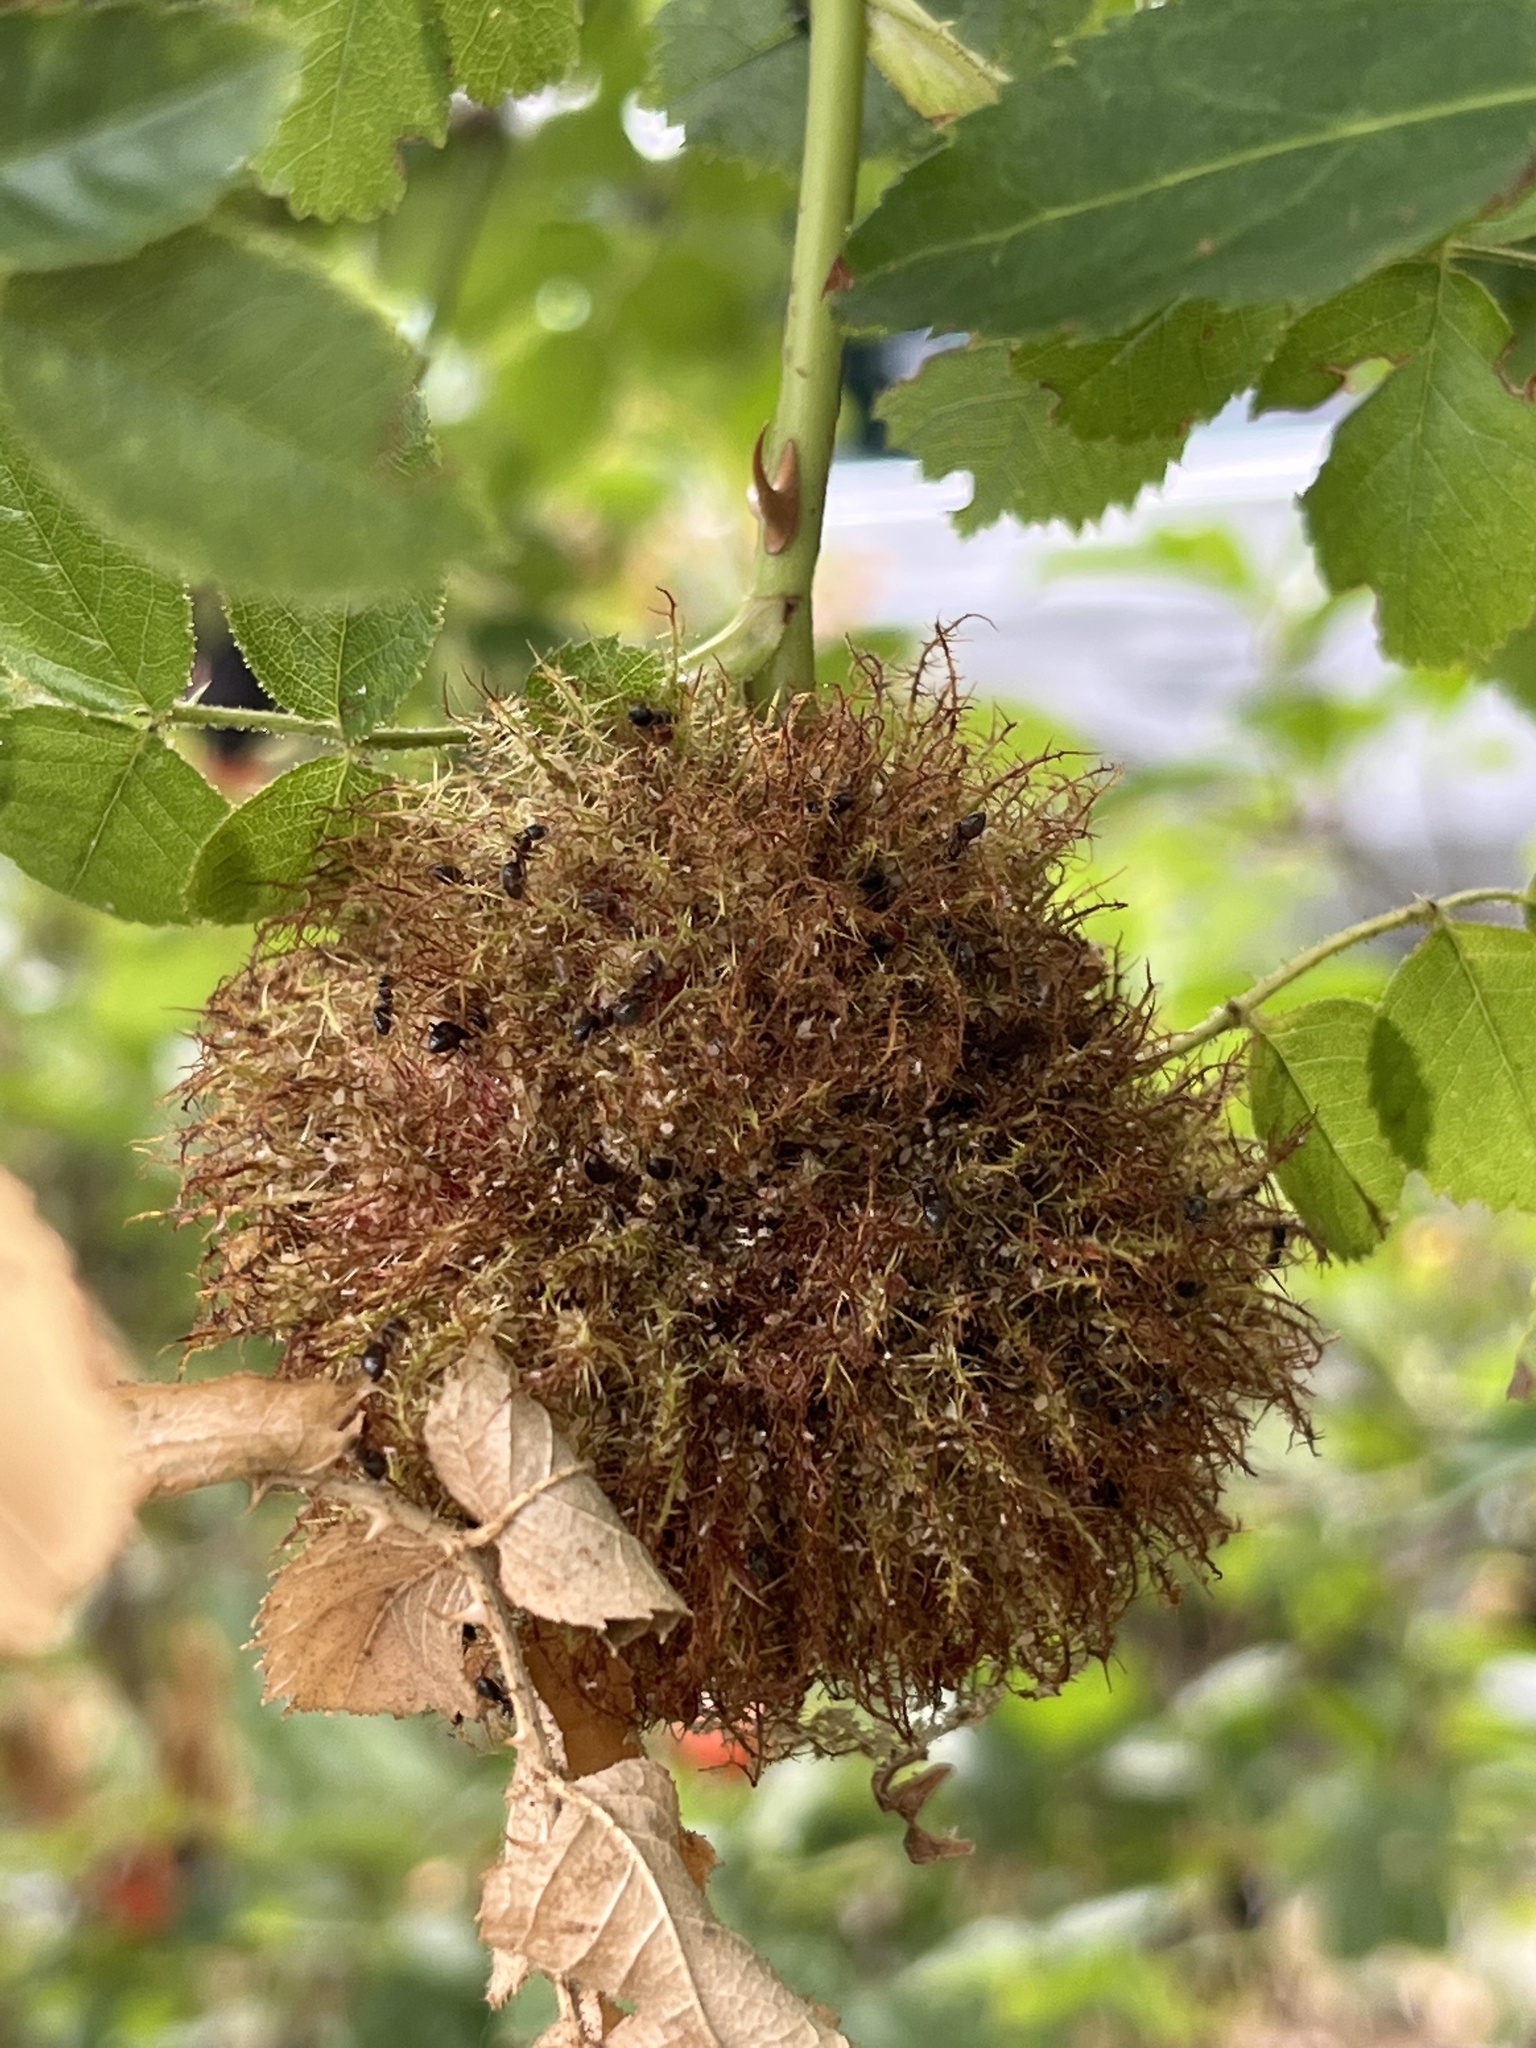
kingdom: Animalia
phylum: Arthropoda
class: Insecta
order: Hymenoptera
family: Cynipidae
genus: Diplolepis
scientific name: Diplolepis rosae
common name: Bedeguar gall
